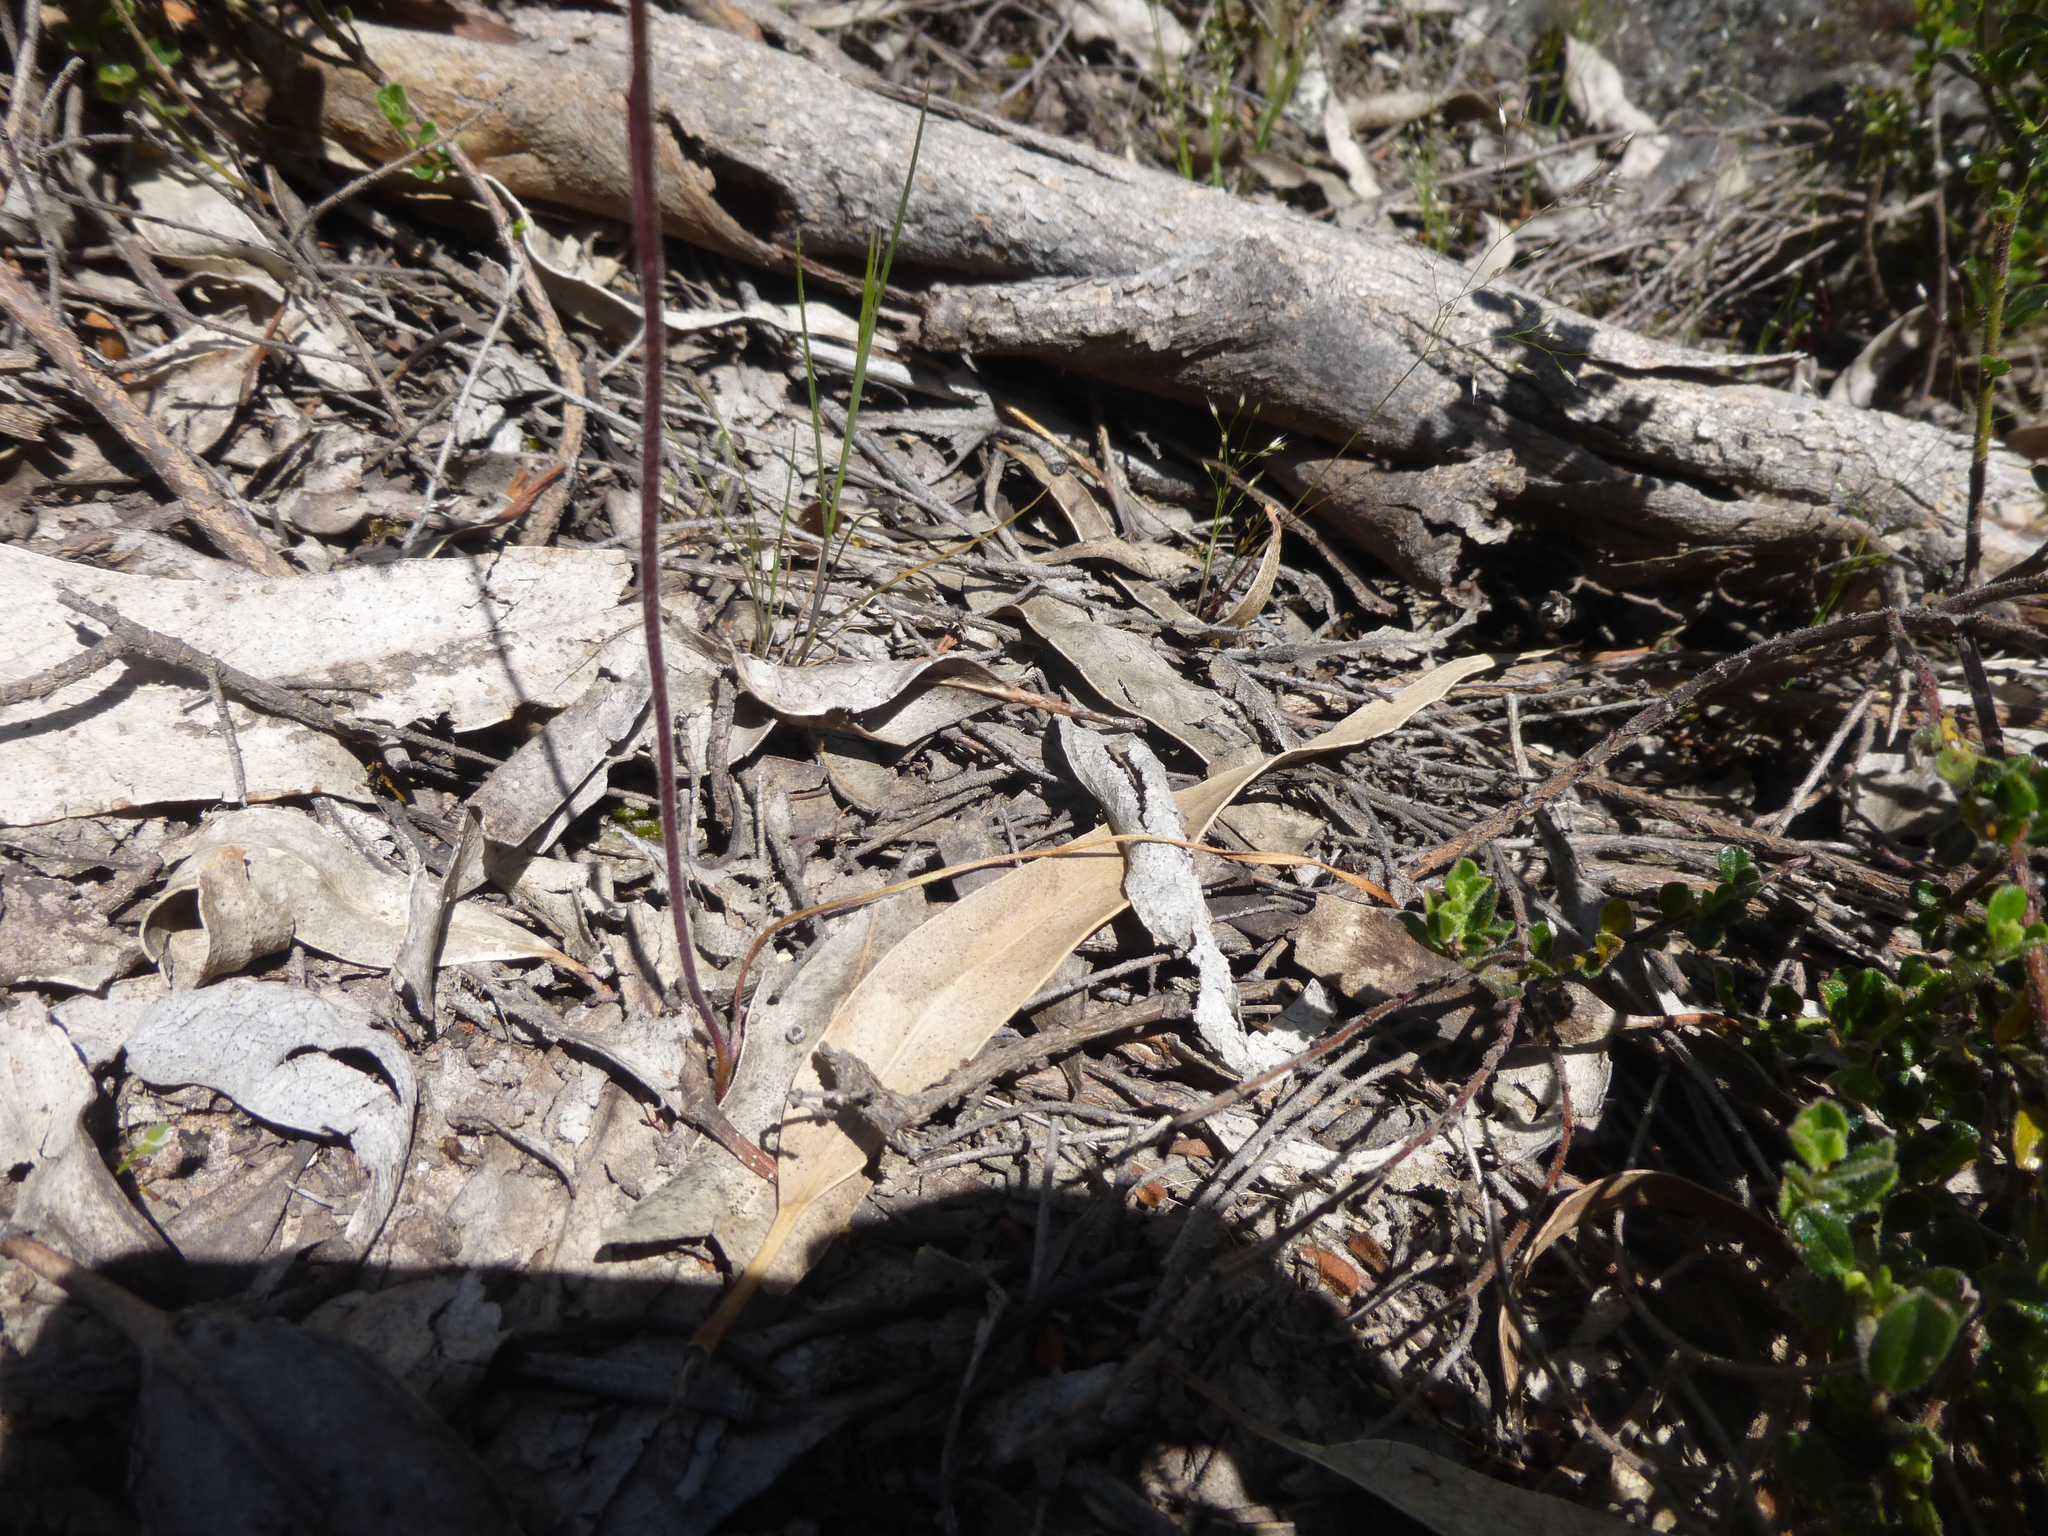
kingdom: Plantae
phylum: Tracheophyta
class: Liliopsida
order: Asparagales
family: Orchidaceae
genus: Caladenia
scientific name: Caladenia moschata
